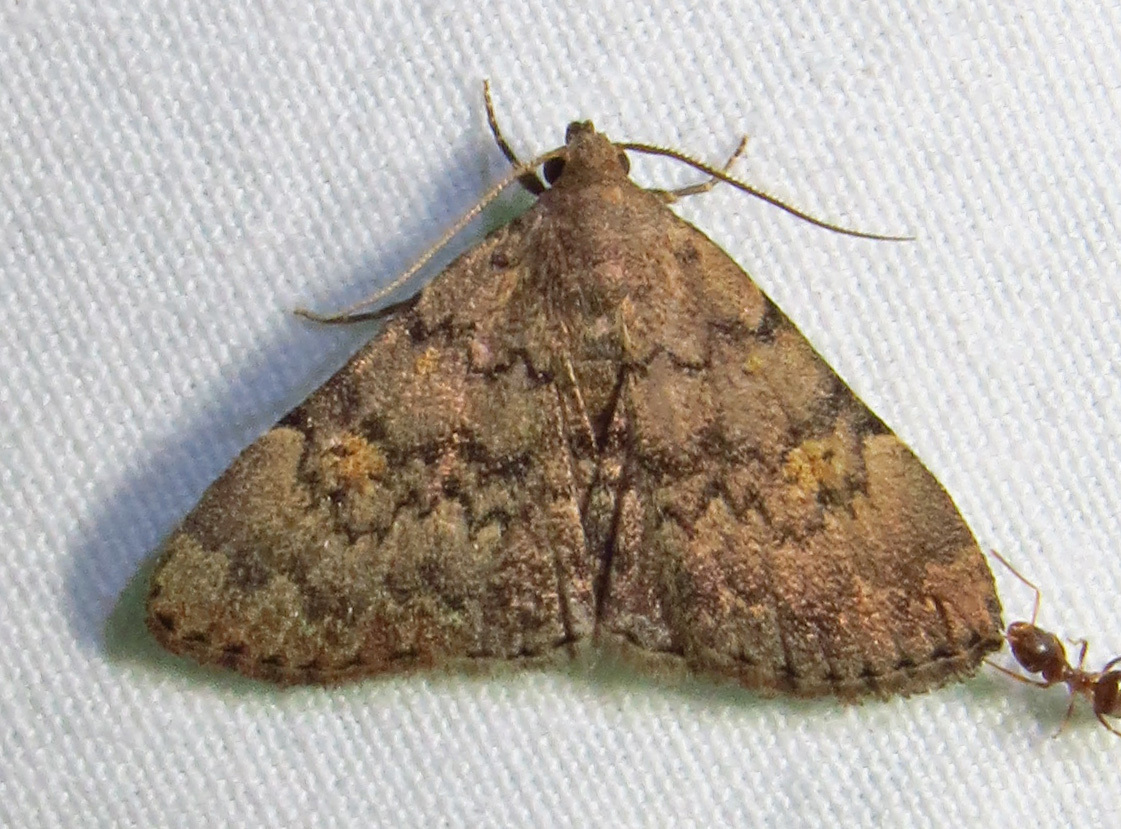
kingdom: Animalia
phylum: Arthropoda
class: Insecta
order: Lepidoptera
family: Erebidae
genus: Idia
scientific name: Idia aemula
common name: Common idia moth
